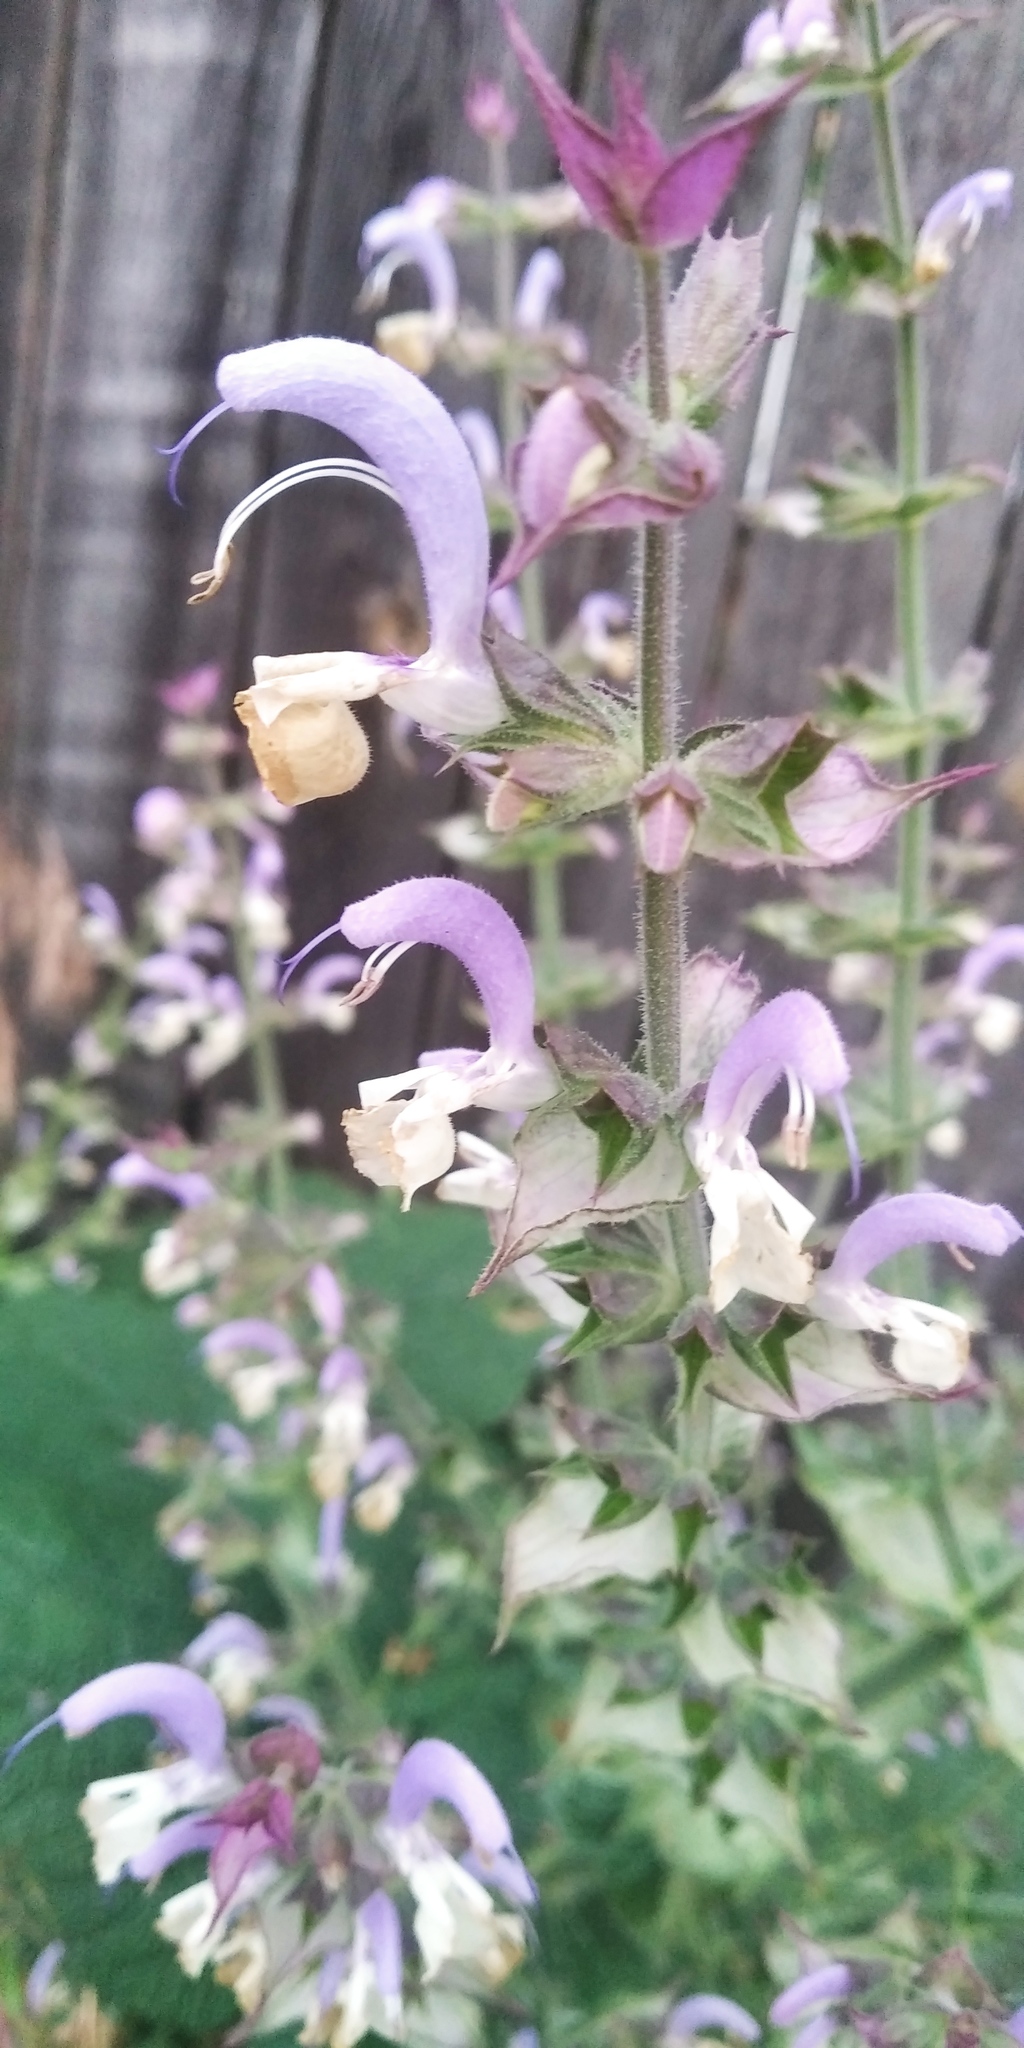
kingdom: Plantae
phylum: Tracheophyta
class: Magnoliopsida
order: Lamiales
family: Lamiaceae
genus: Salvia
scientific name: Salvia sclarea
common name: Clary
